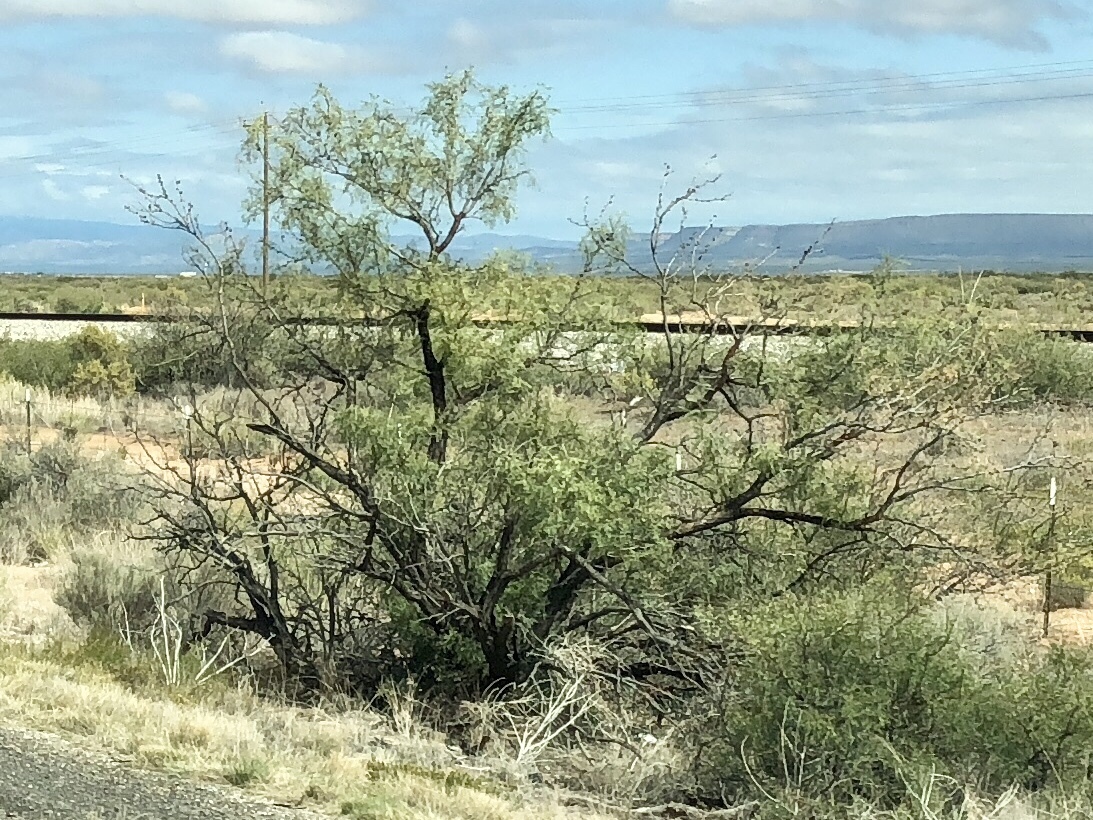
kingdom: Plantae
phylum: Tracheophyta
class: Magnoliopsida
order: Fabales
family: Fabaceae
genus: Prosopis
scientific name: Prosopis glandulosa
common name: Honey mesquite
